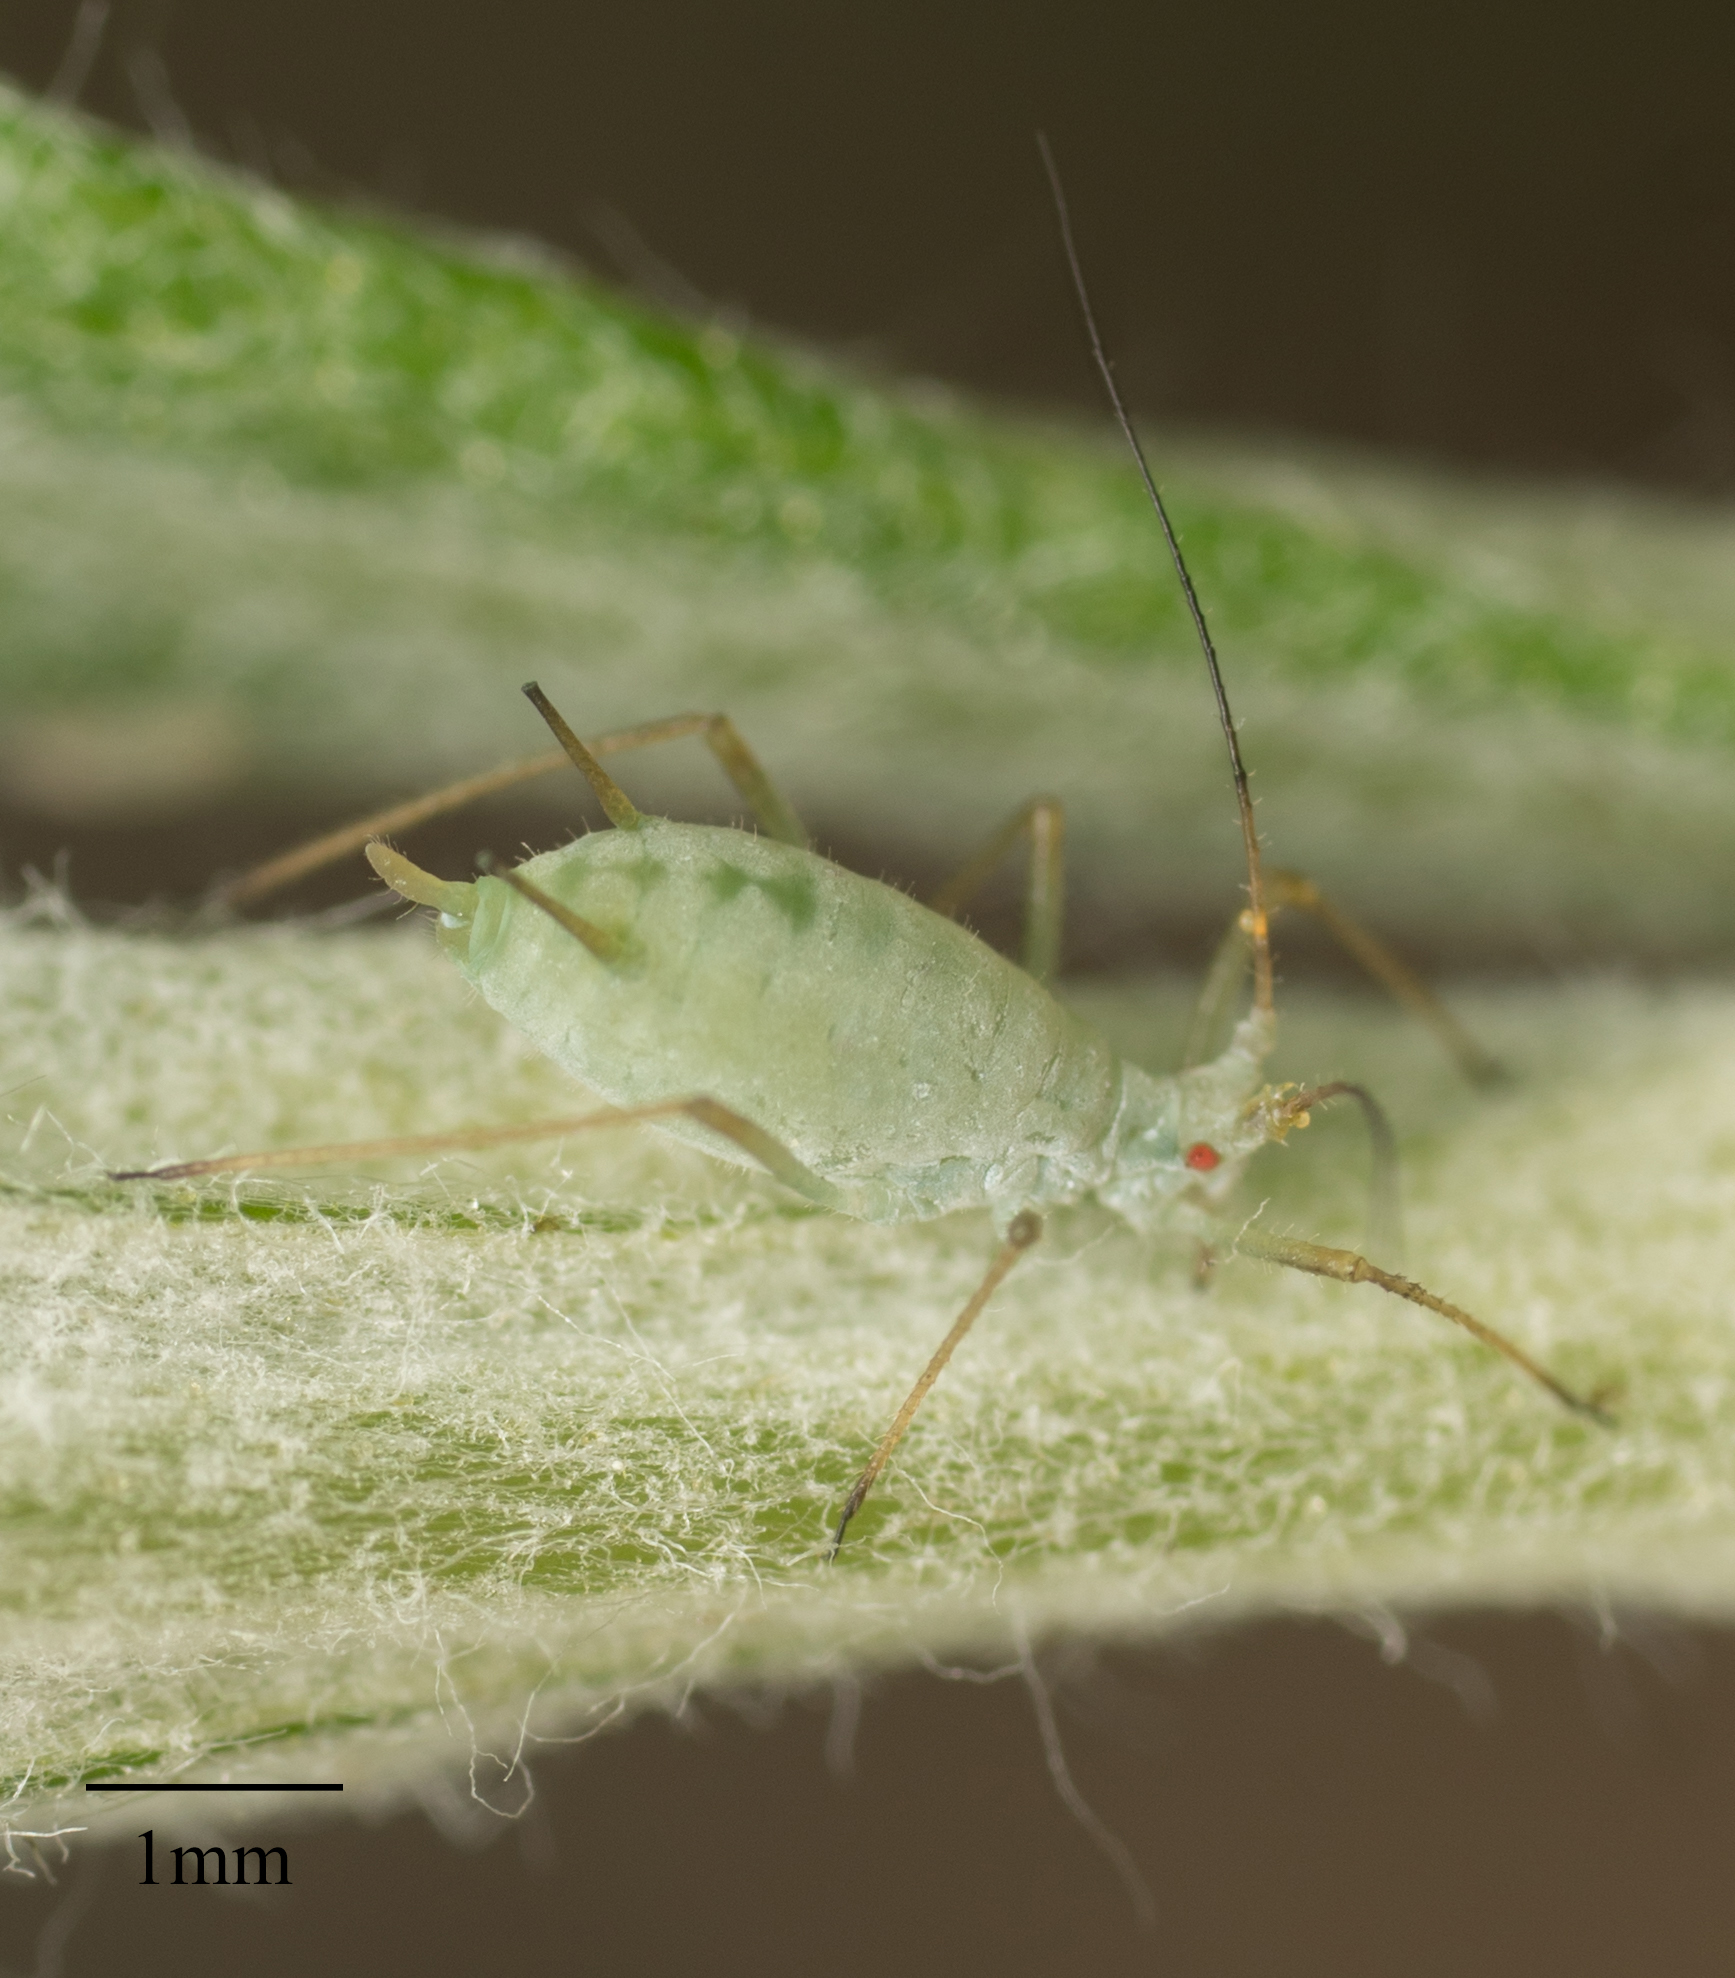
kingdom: Animalia
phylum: Arthropoda
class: Insecta
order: Hemiptera
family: Aphididae
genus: Macrosiphoniella
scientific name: Macrosiphoniella ludovicianae
